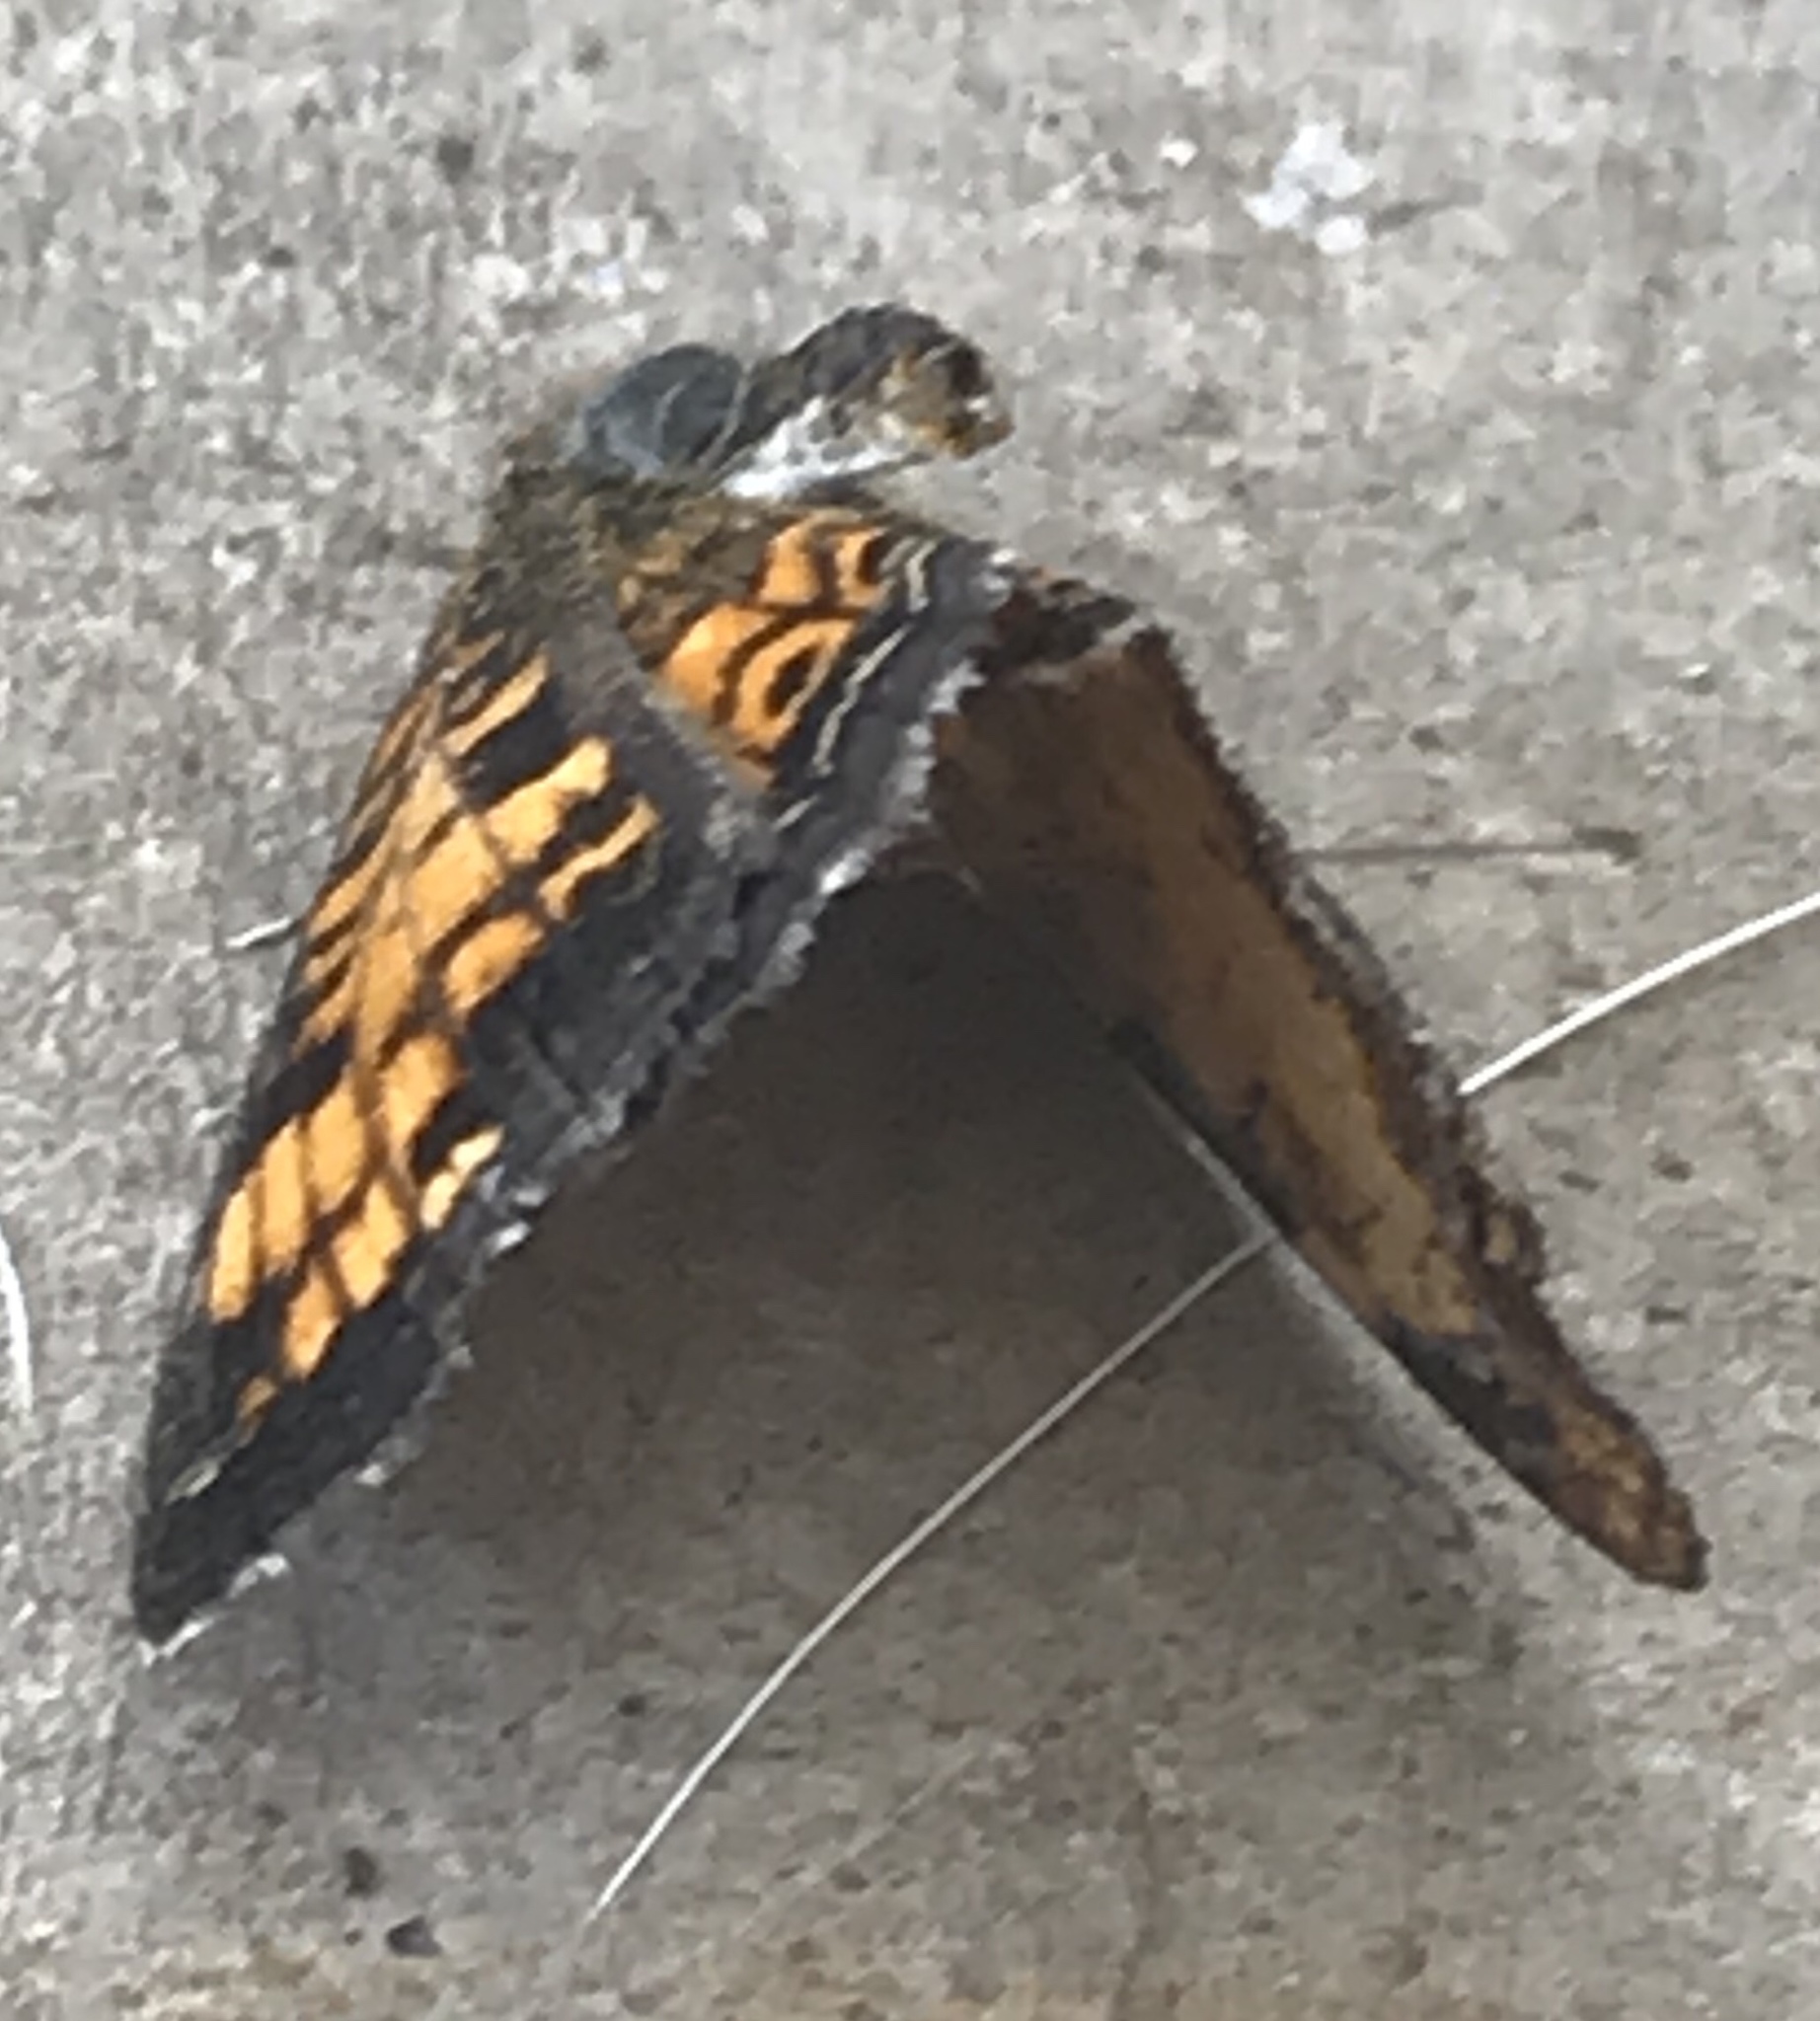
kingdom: Animalia
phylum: Arthropoda
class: Insecta
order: Lepidoptera
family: Nymphalidae
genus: Phyciodes
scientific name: Phyciodes tharos
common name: Pearl crescent
